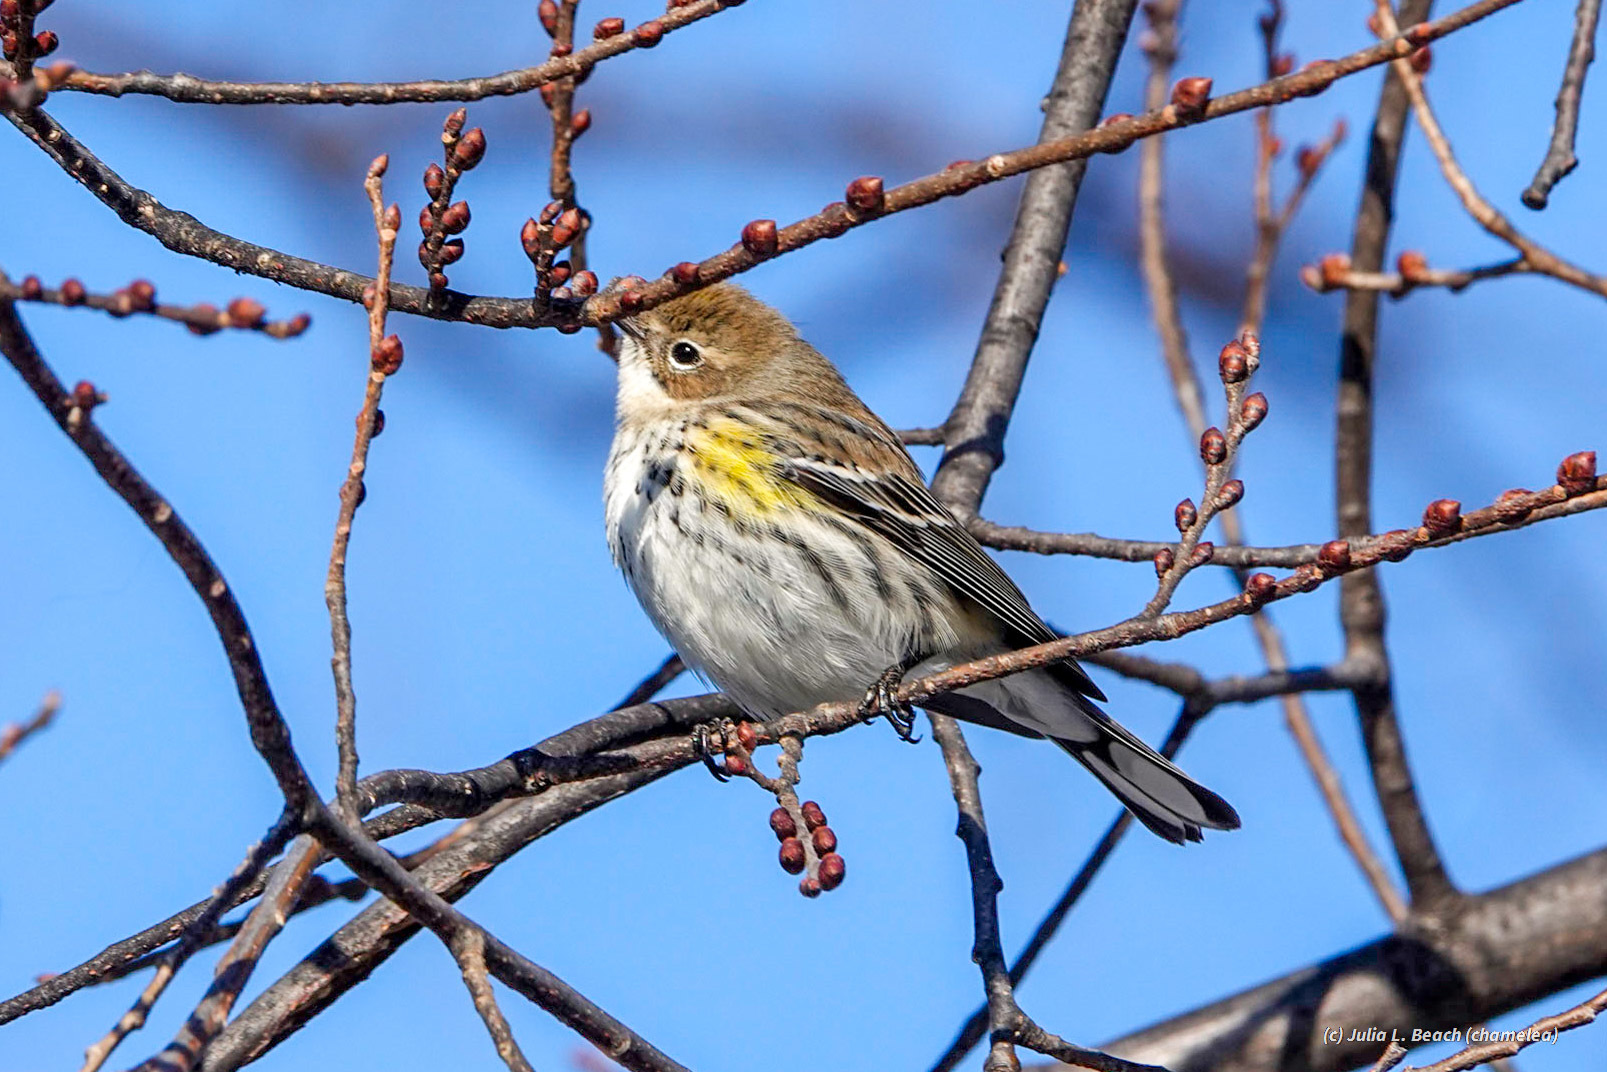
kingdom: Animalia
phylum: Chordata
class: Aves
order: Passeriformes
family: Parulidae
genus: Setophaga
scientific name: Setophaga coronata
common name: Myrtle warbler
